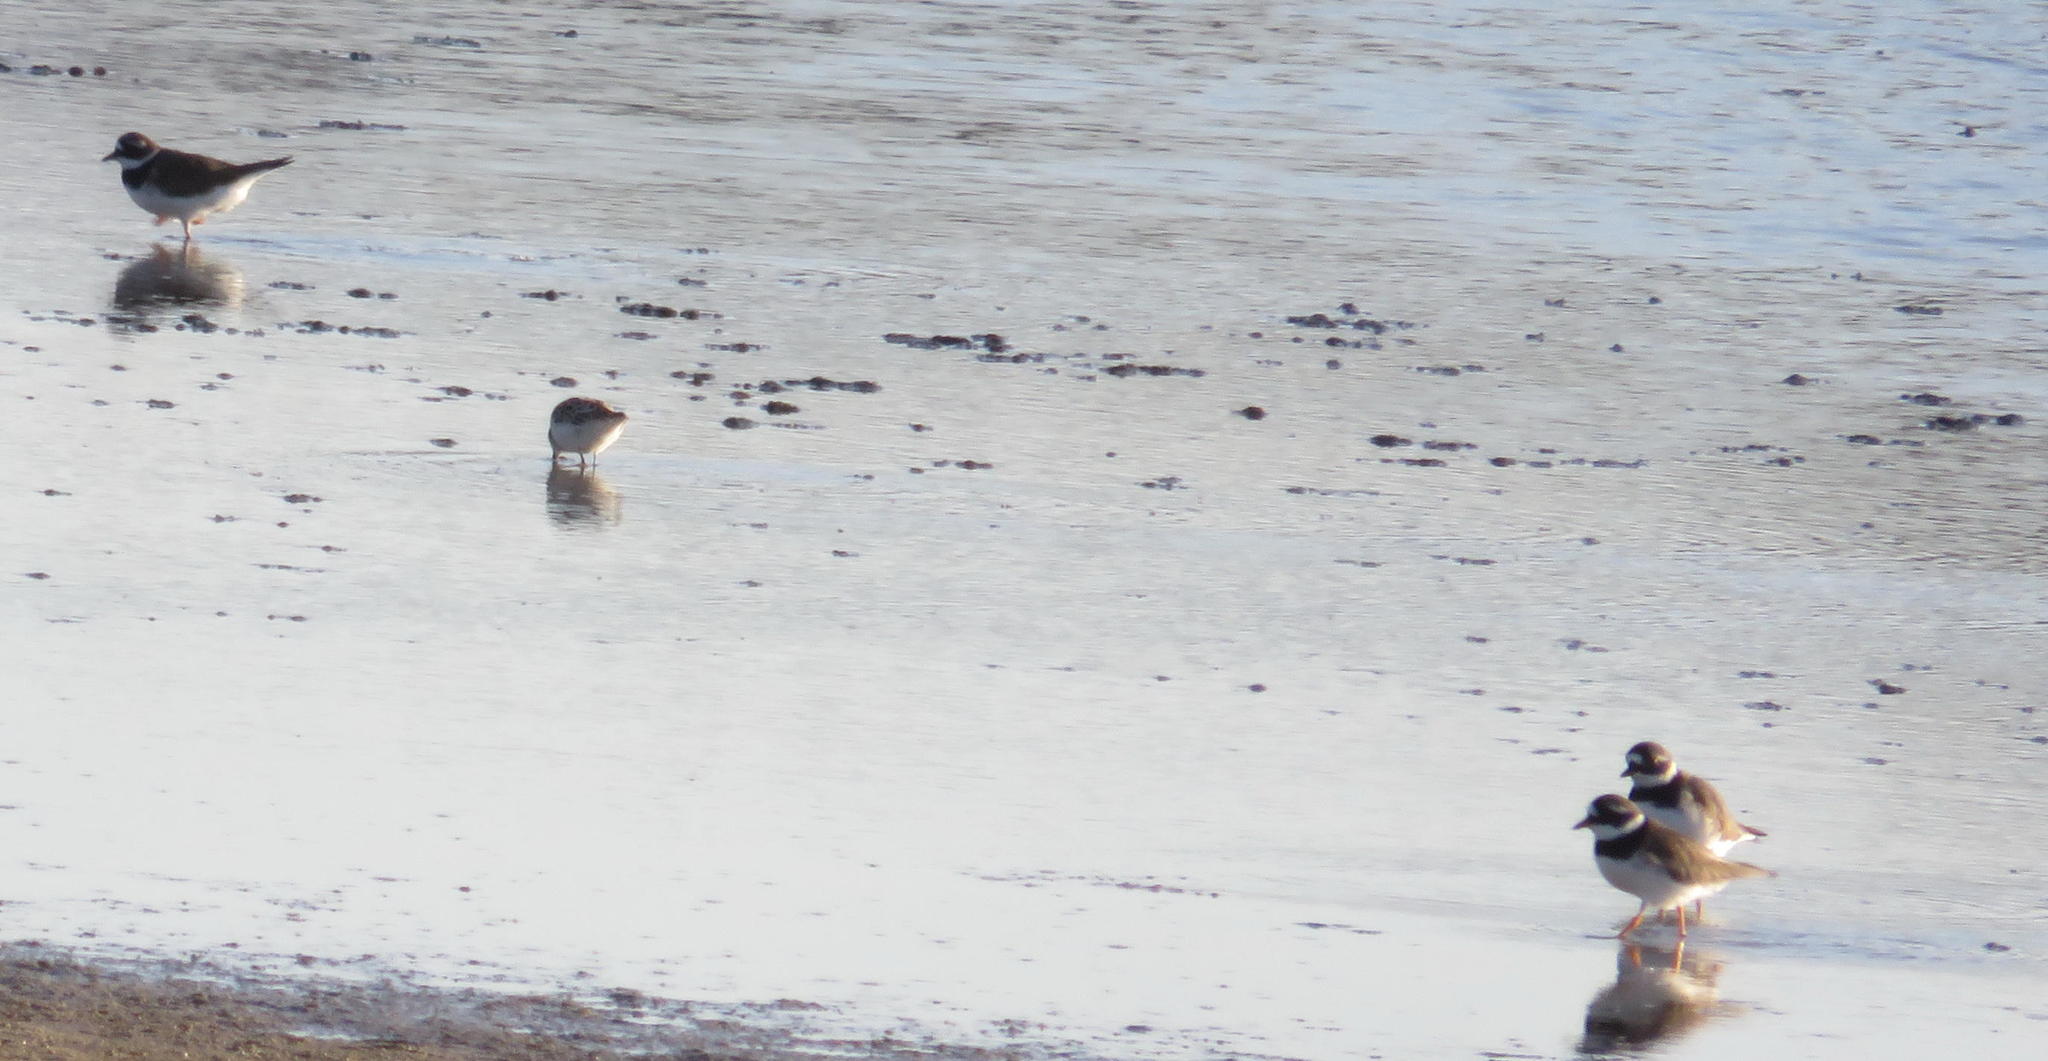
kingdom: Animalia
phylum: Chordata
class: Aves
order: Charadriiformes
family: Charadriidae
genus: Charadrius
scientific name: Charadrius hiaticula
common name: Common ringed plover
